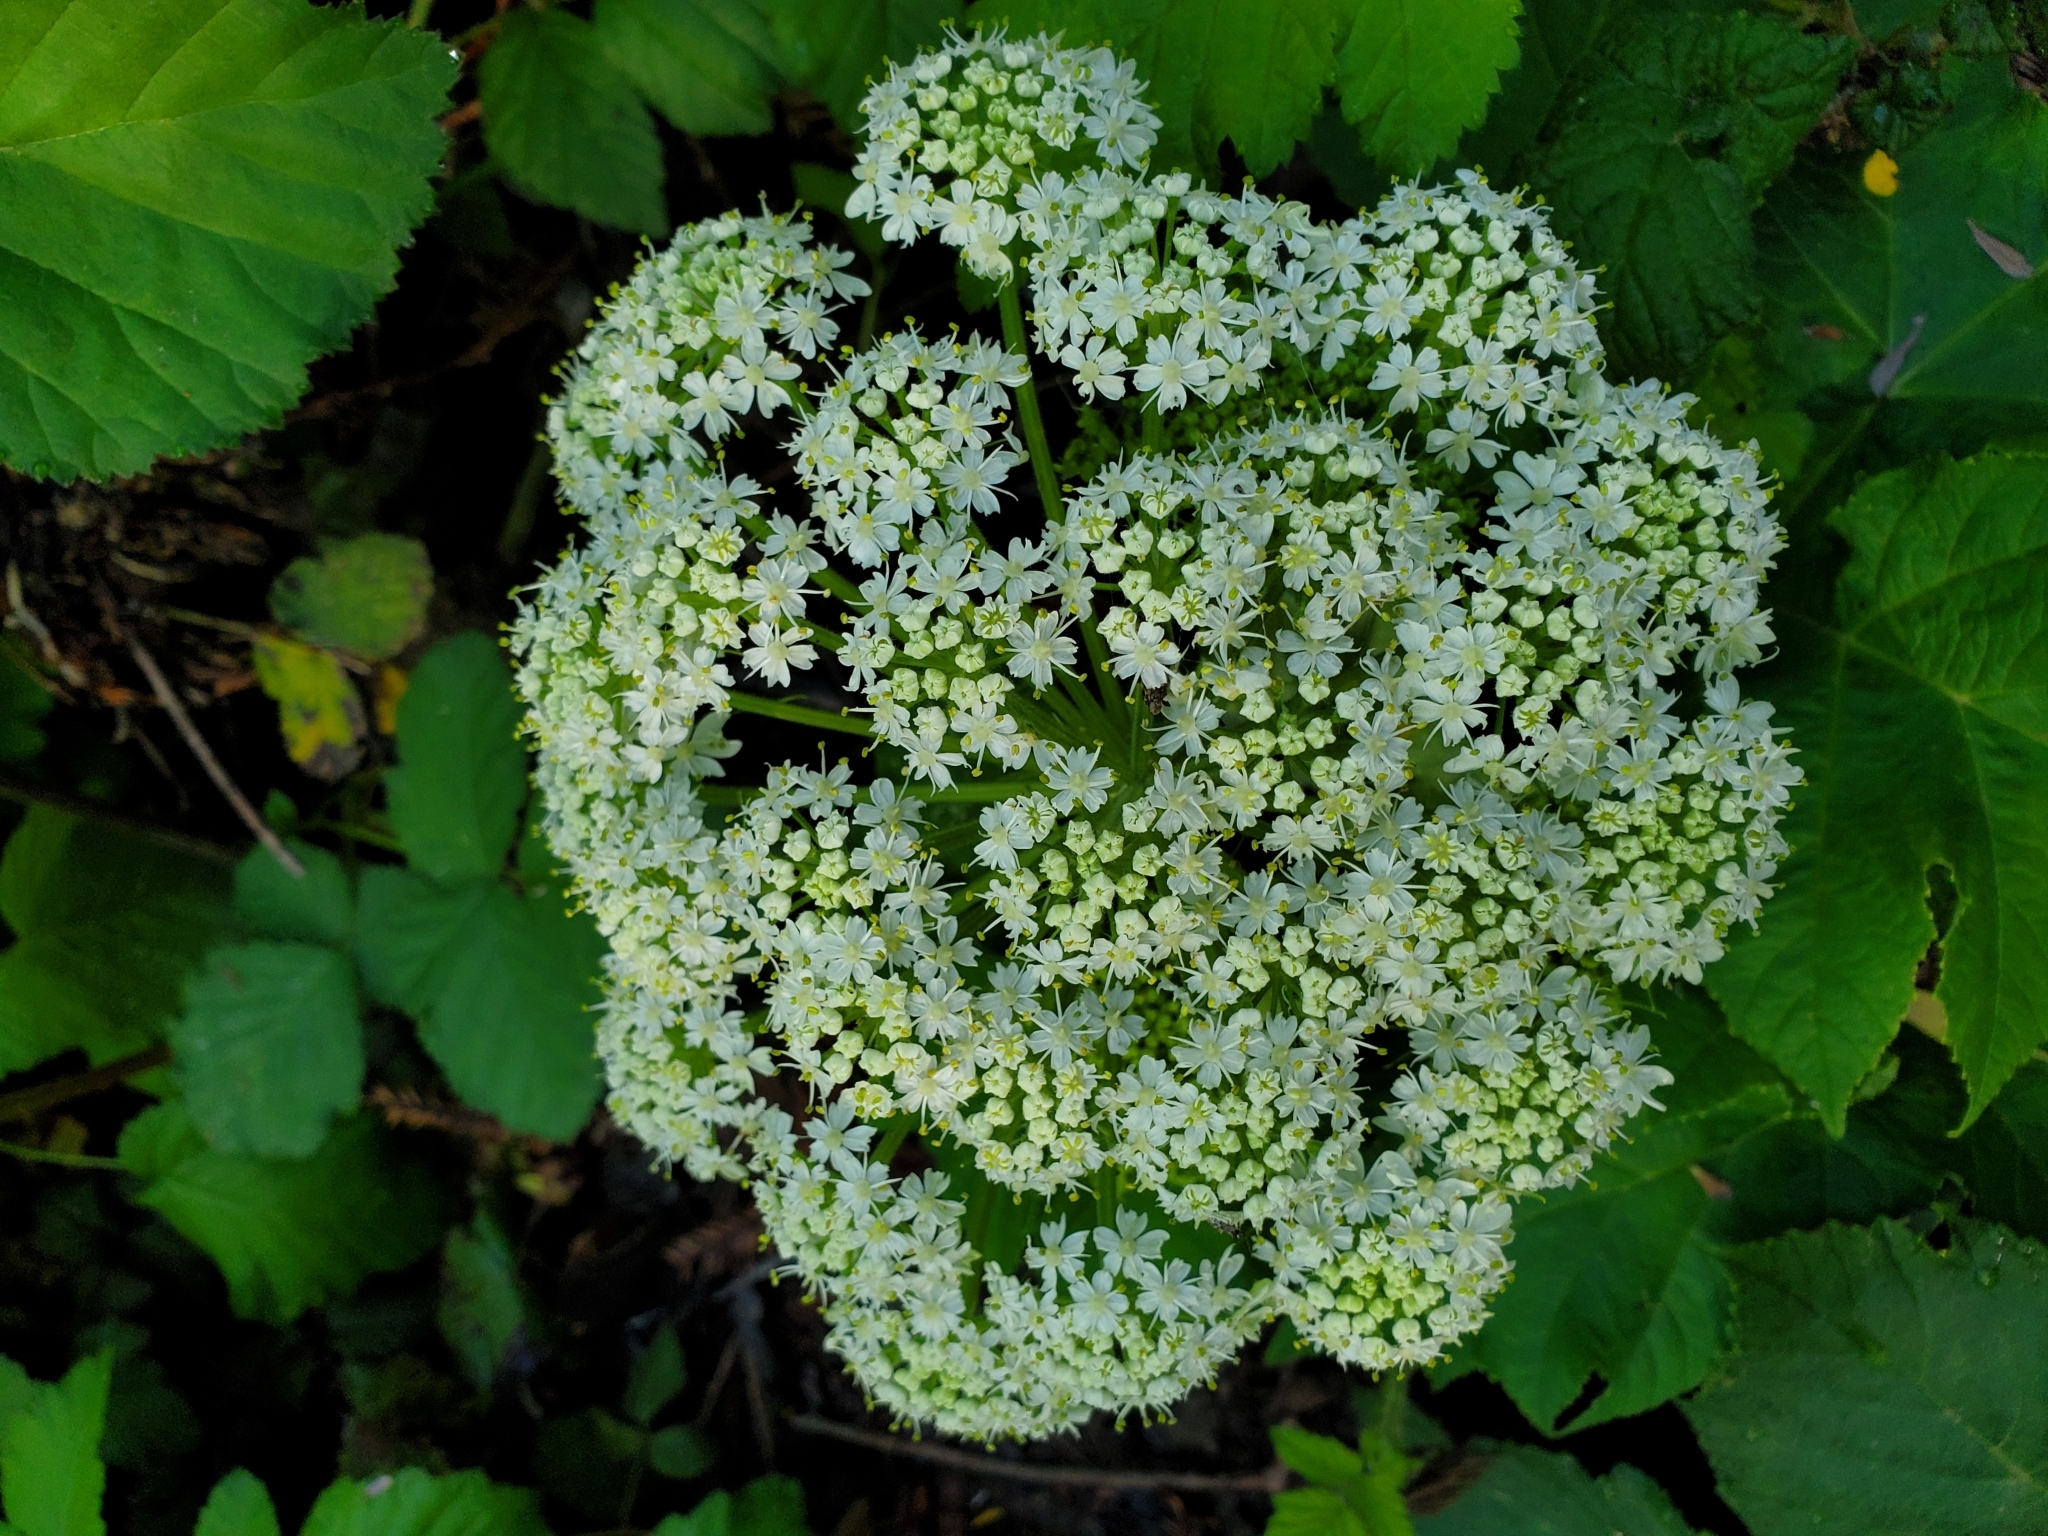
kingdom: Plantae
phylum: Tracheophyta
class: Magnoliopsida
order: Apiales
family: Apiaceae
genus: Heracleum
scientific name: Heracleum maximum
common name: American cow parsnip
